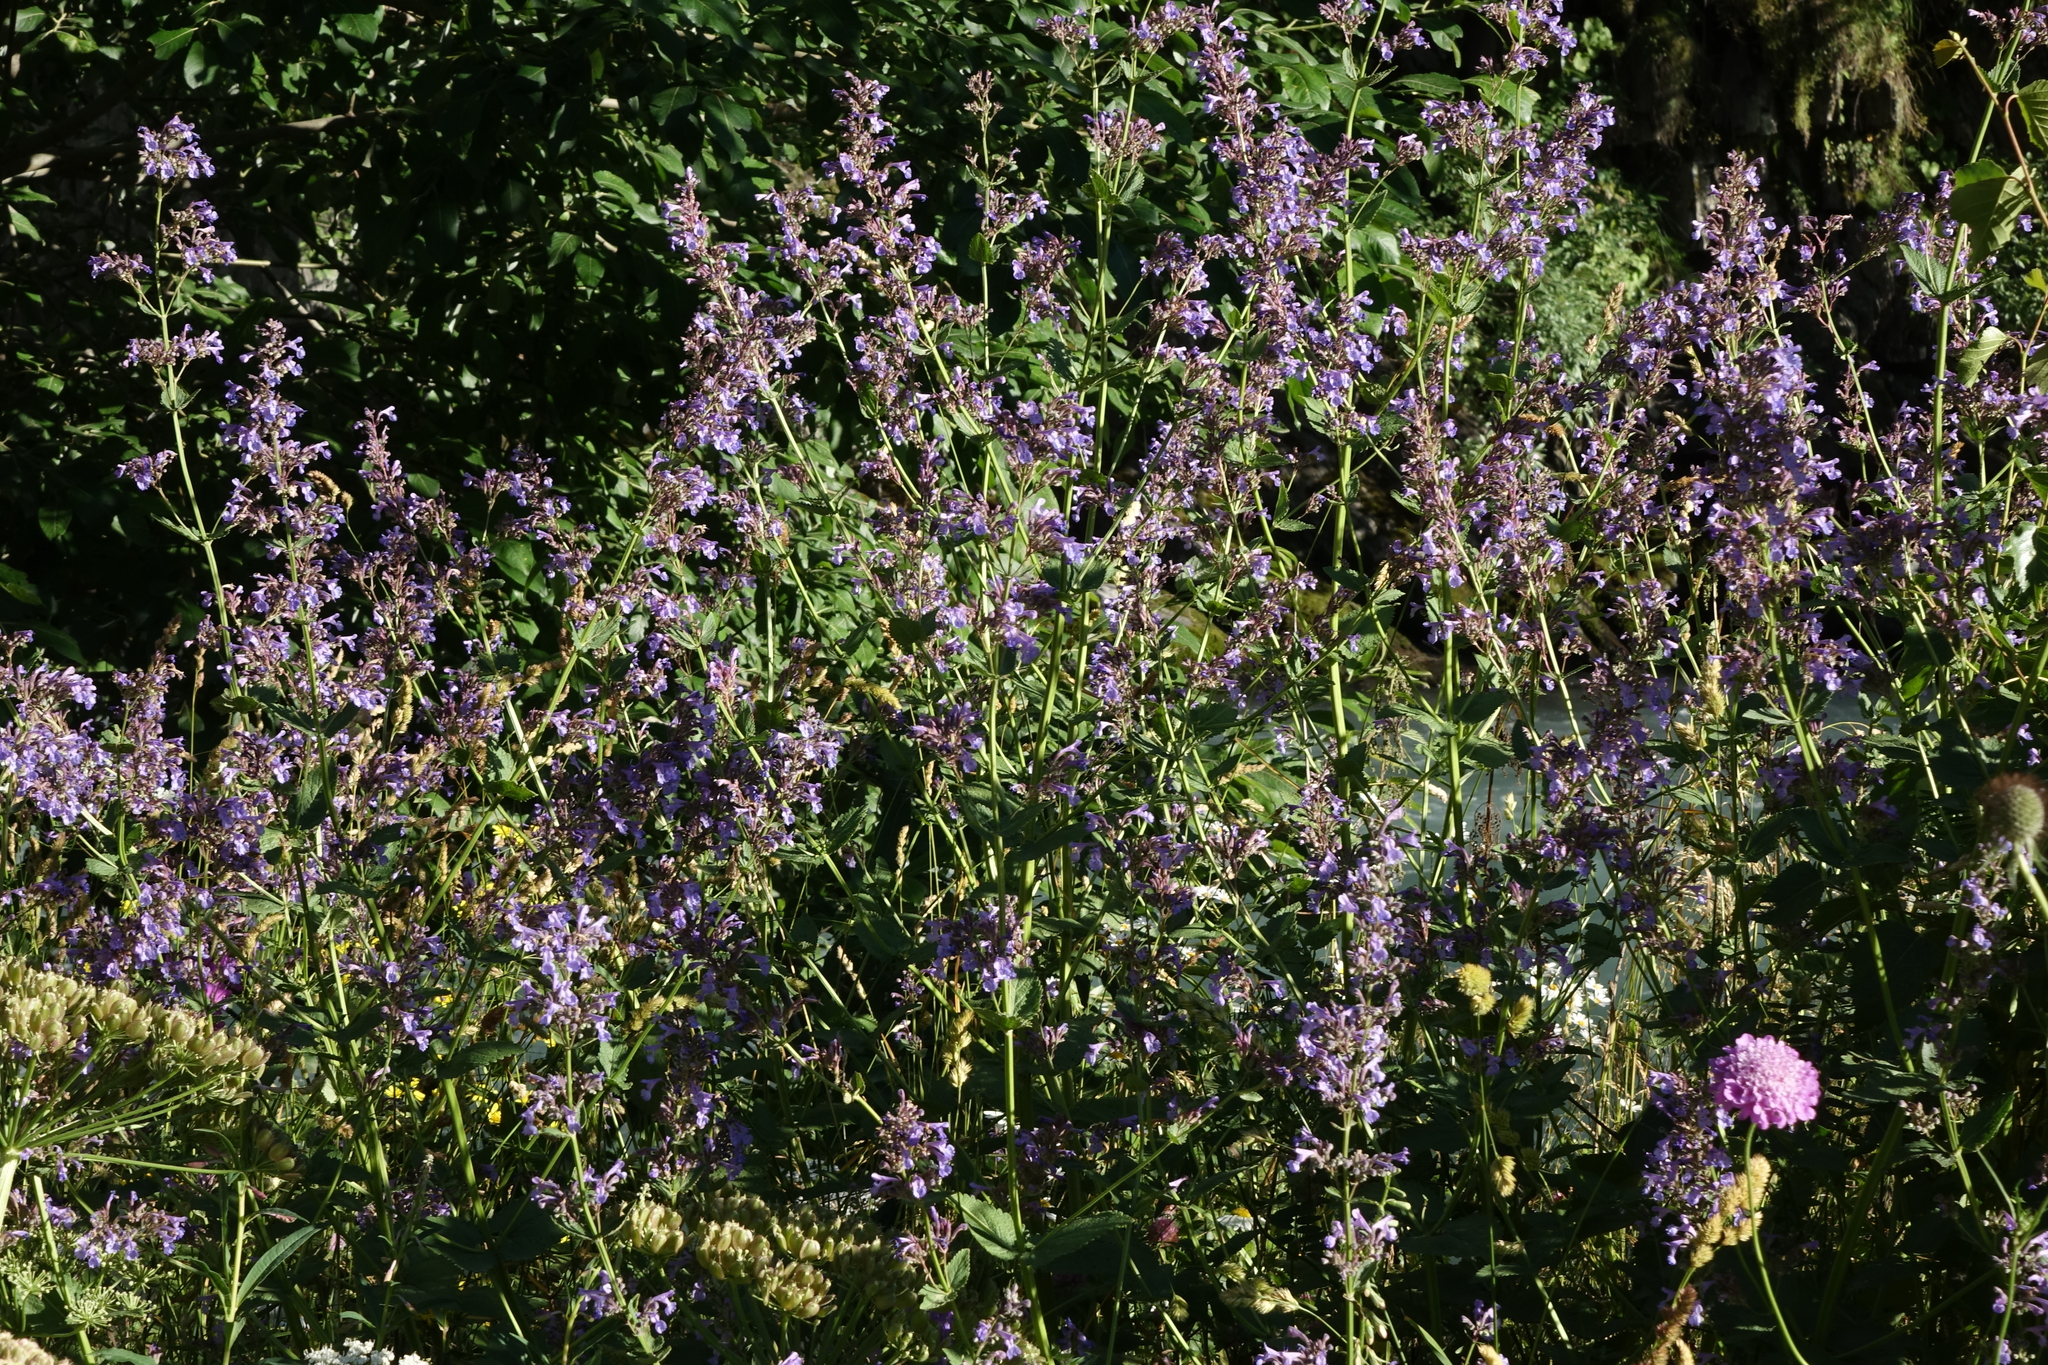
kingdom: Plantae
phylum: Tracheophyta
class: Magnoliopsida
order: Lamiales
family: Lamiaceae
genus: Nepeta
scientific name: Nepeta grandiflora
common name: Caucasus catmint
